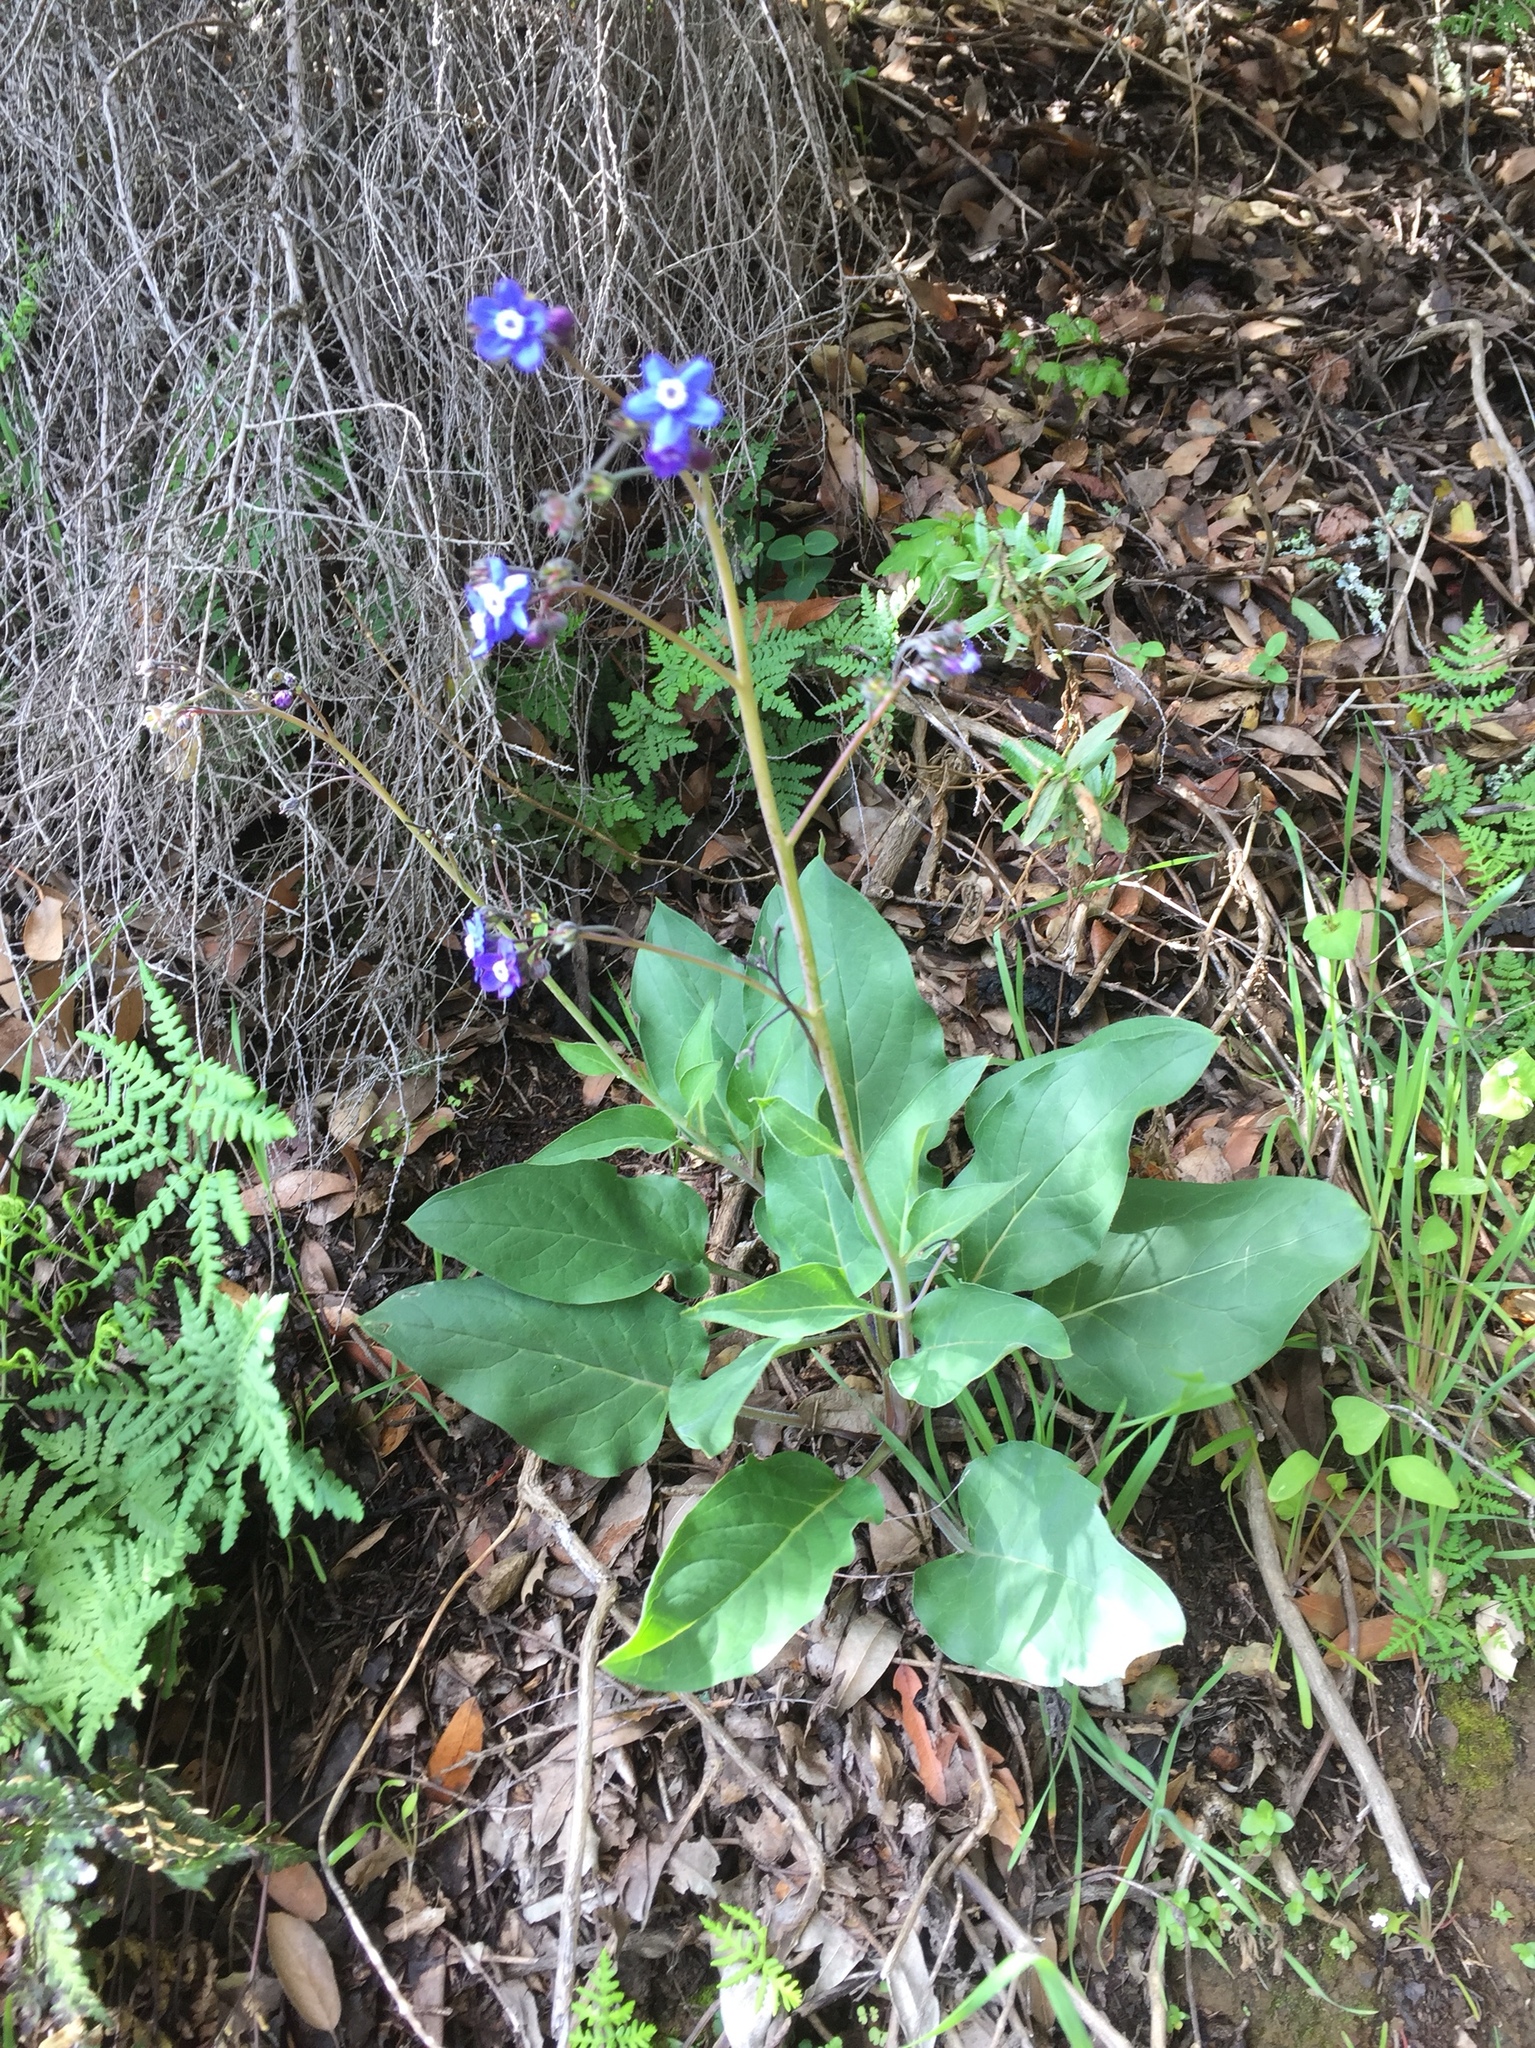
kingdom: Plantae
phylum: Tracheophyta
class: Magnoliopsida
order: Boraginales
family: Boraginaceae
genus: Adelinia
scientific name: Adelinia grande
